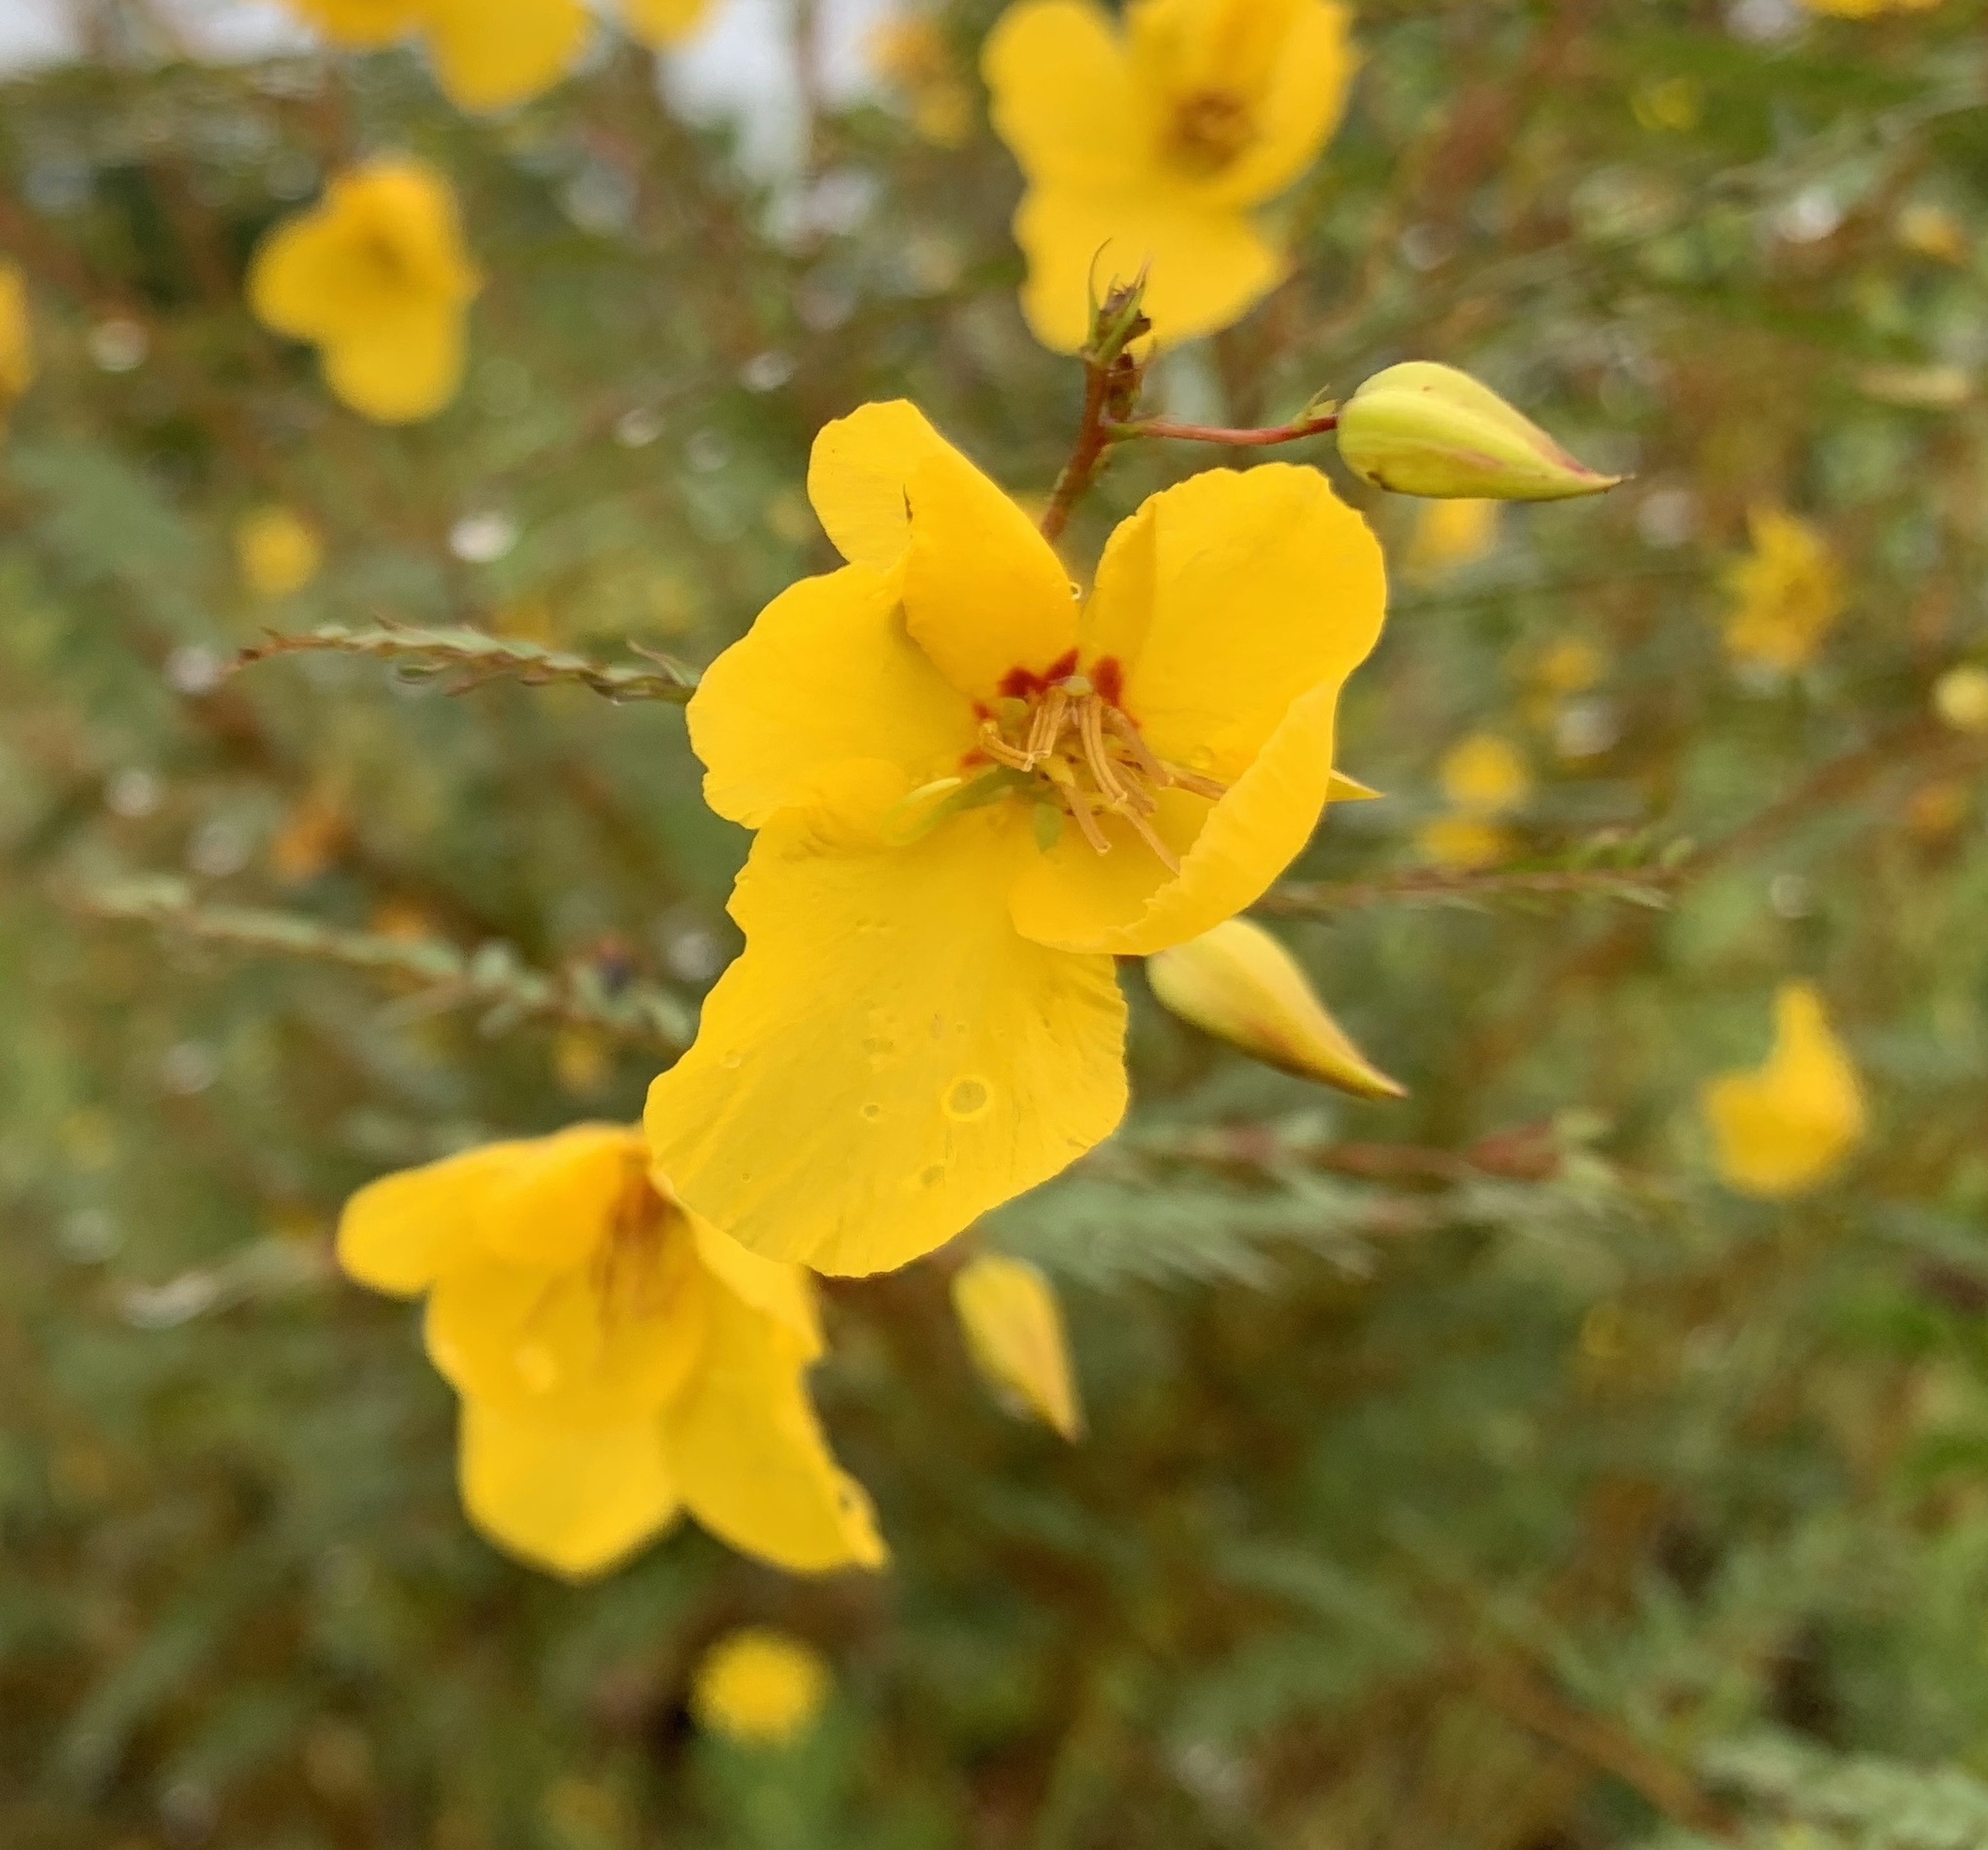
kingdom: Plantae
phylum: Tracheophyta
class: Magnoliopsida
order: Fabales
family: Fabaceae
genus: Chamaecrista
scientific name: Chamaecrista fasciculata
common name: Golden cassia
